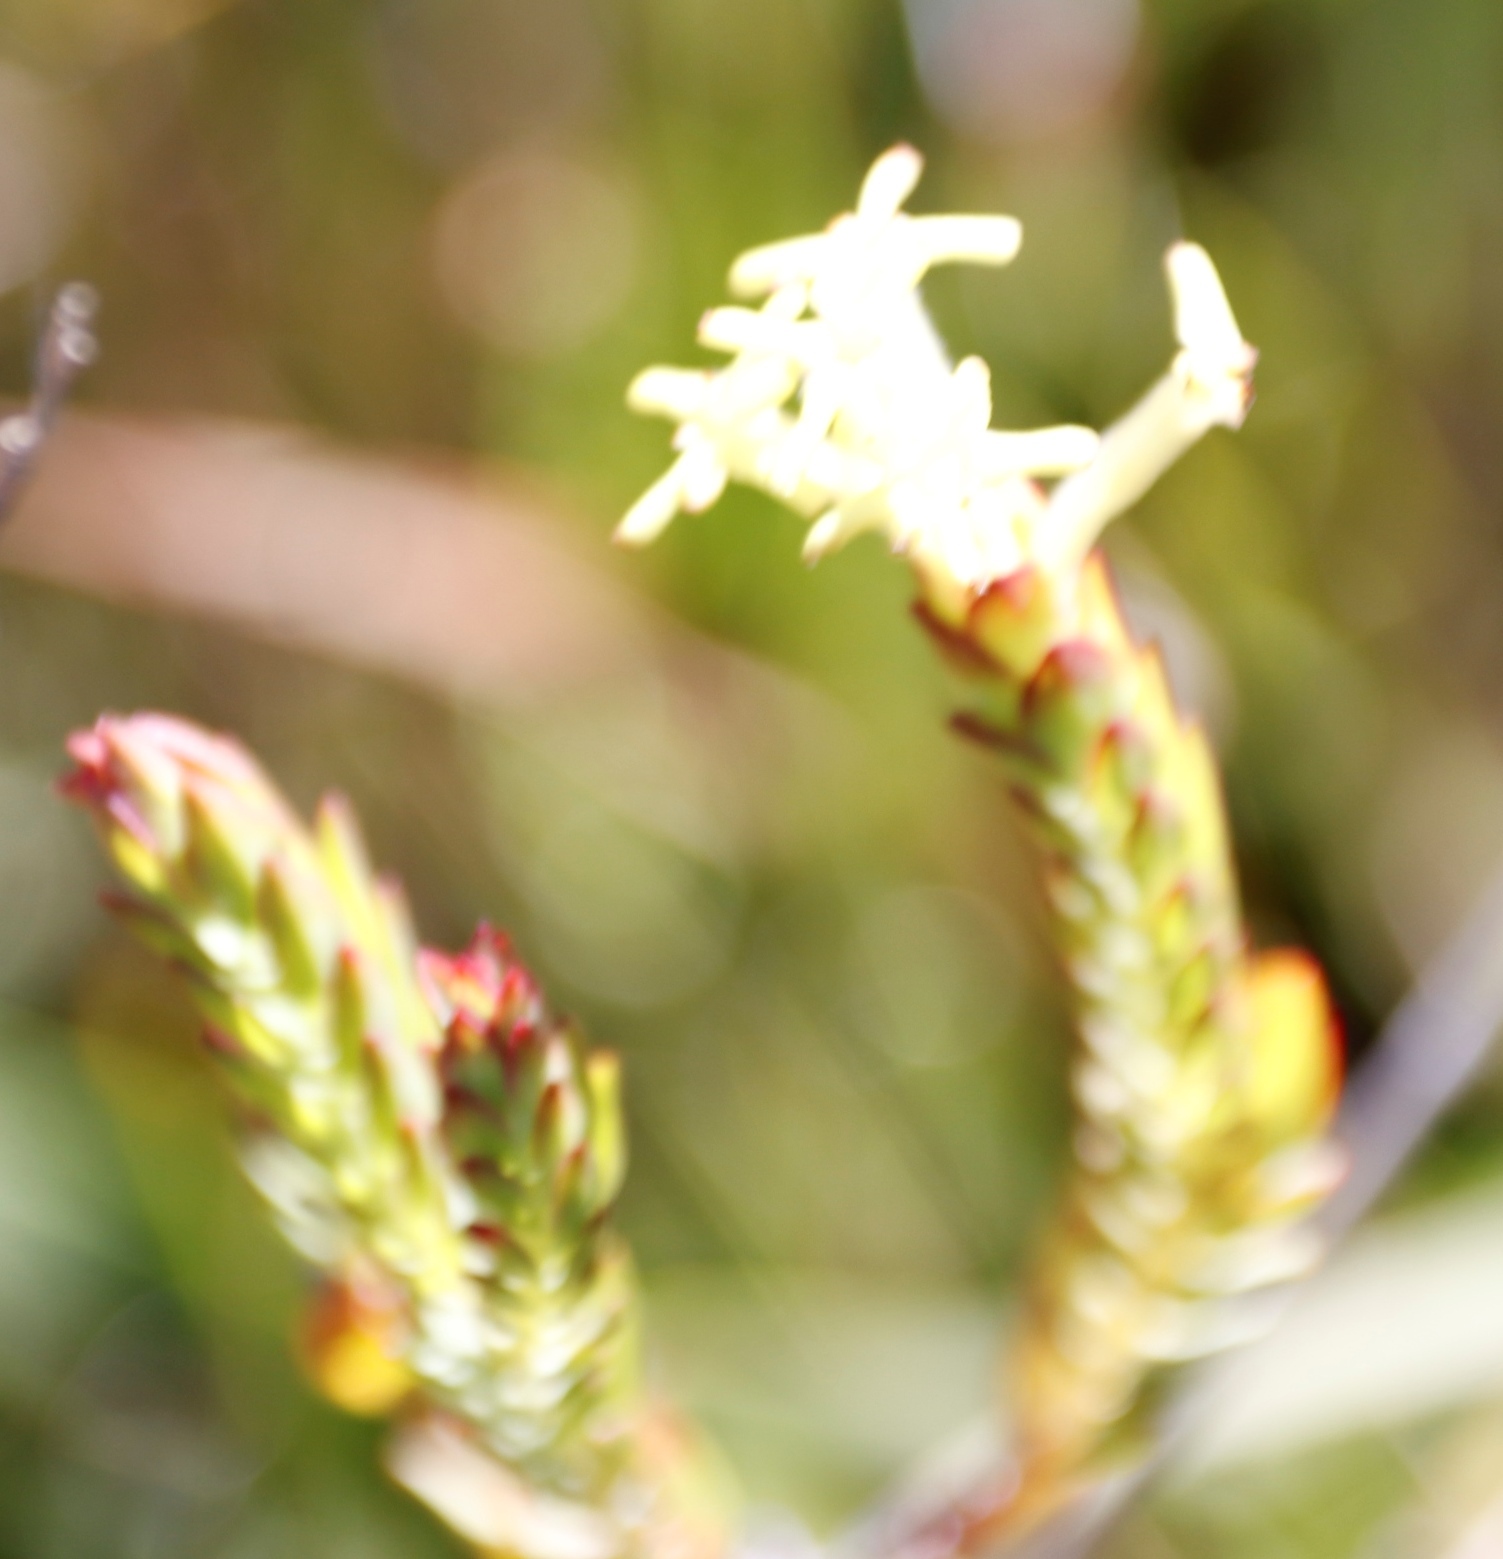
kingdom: Plantae
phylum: Tracheophyta
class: Magnoliopsida
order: Malvales
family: Thymelaeaceae
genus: Gnidia
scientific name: Gnidia oppositifolia
